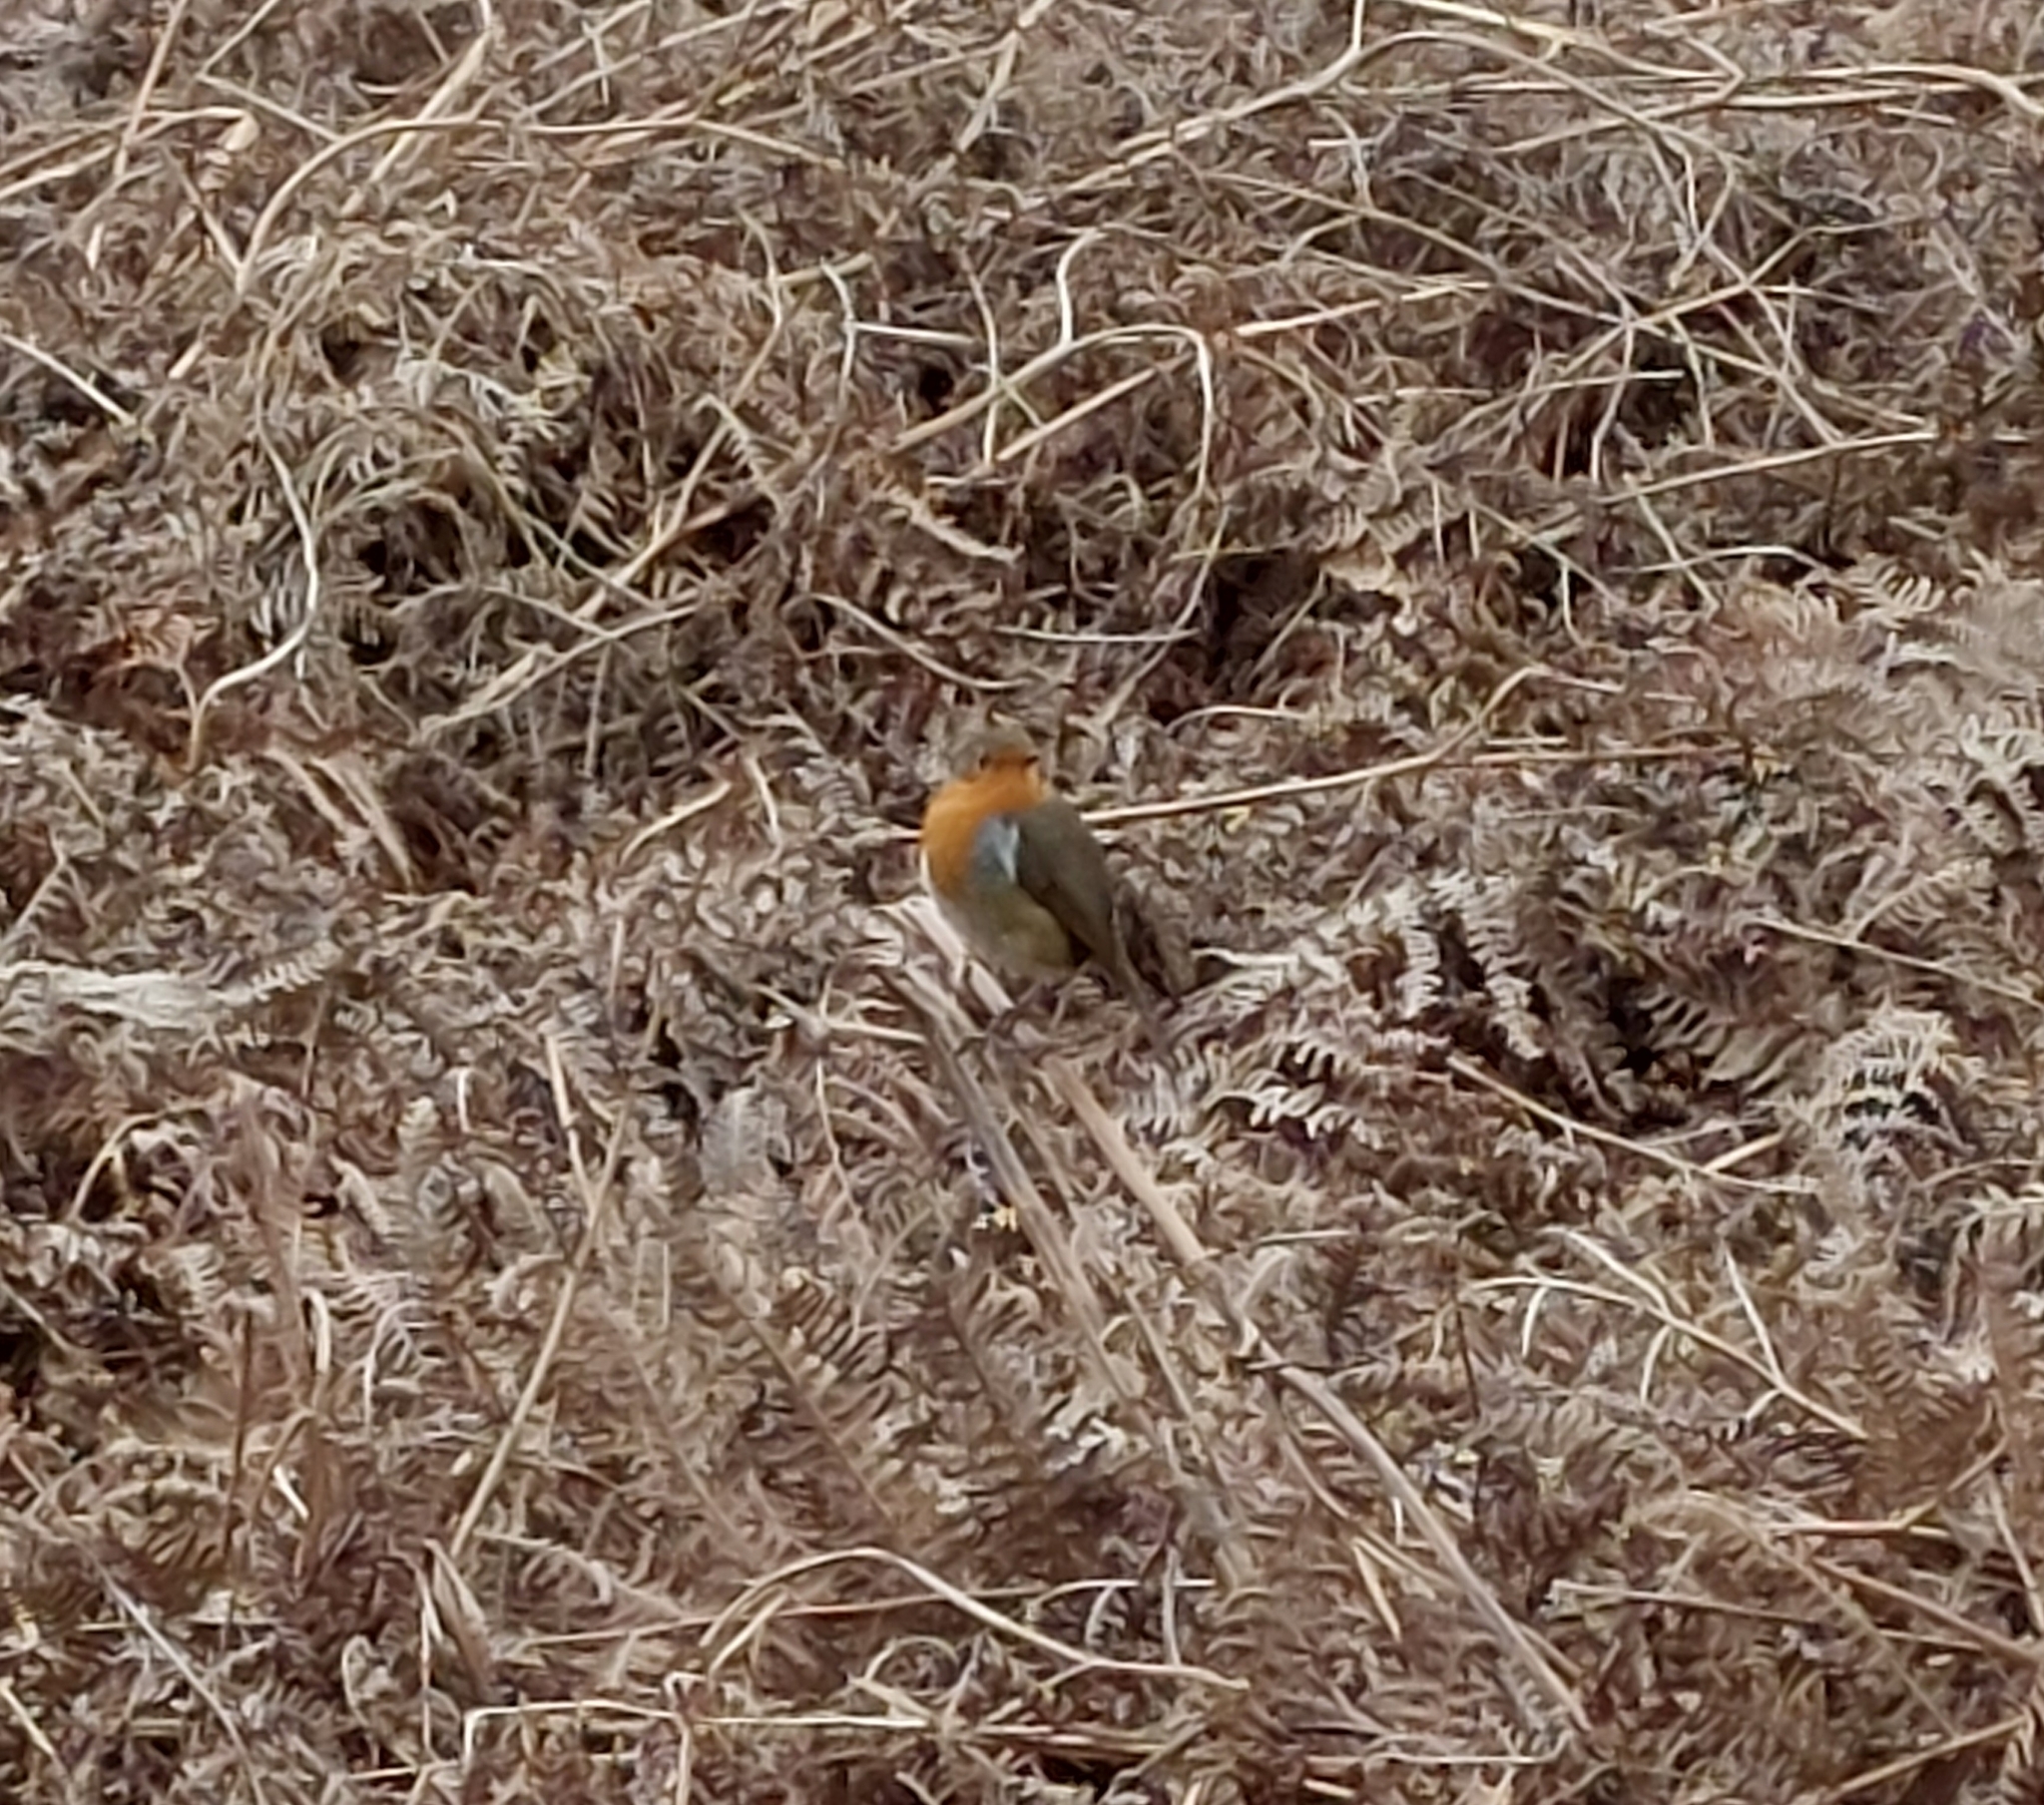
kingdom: Animalia
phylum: Chordata
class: Aves
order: Passeriformes
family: Muscicapidae
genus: Erithacus
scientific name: Erithacus rubecula
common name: European robin
